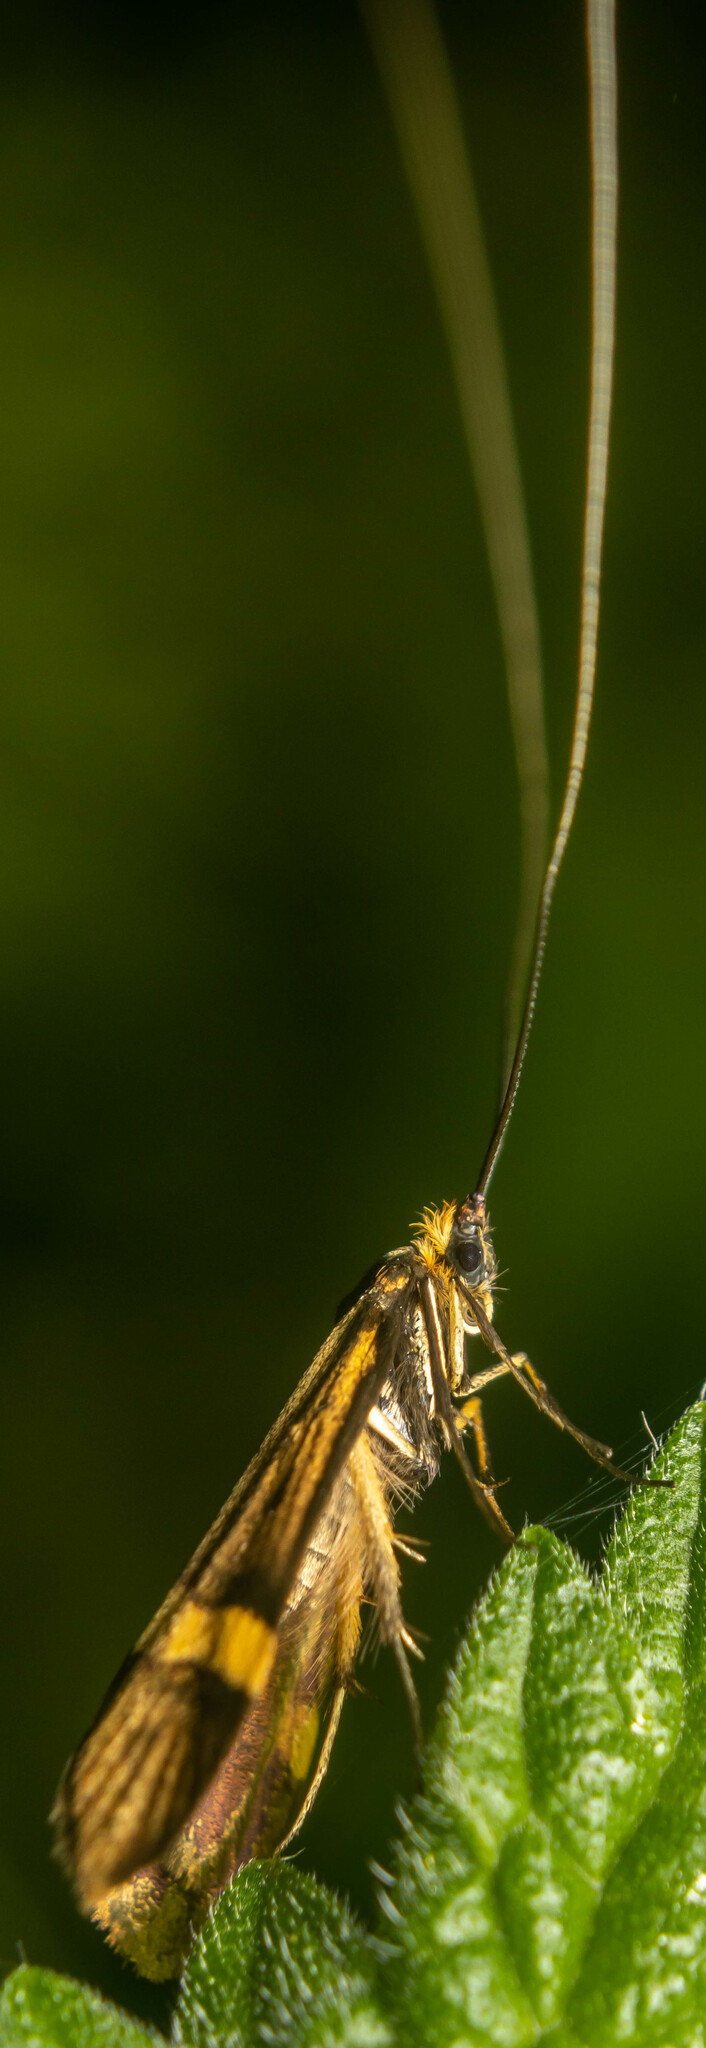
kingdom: Animalia
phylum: Arthropoda
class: Insecta
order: Lepidoptera
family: Adelidae
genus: Nemophora
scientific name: Nemophora degeerella
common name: Yellow-barred long-horn
